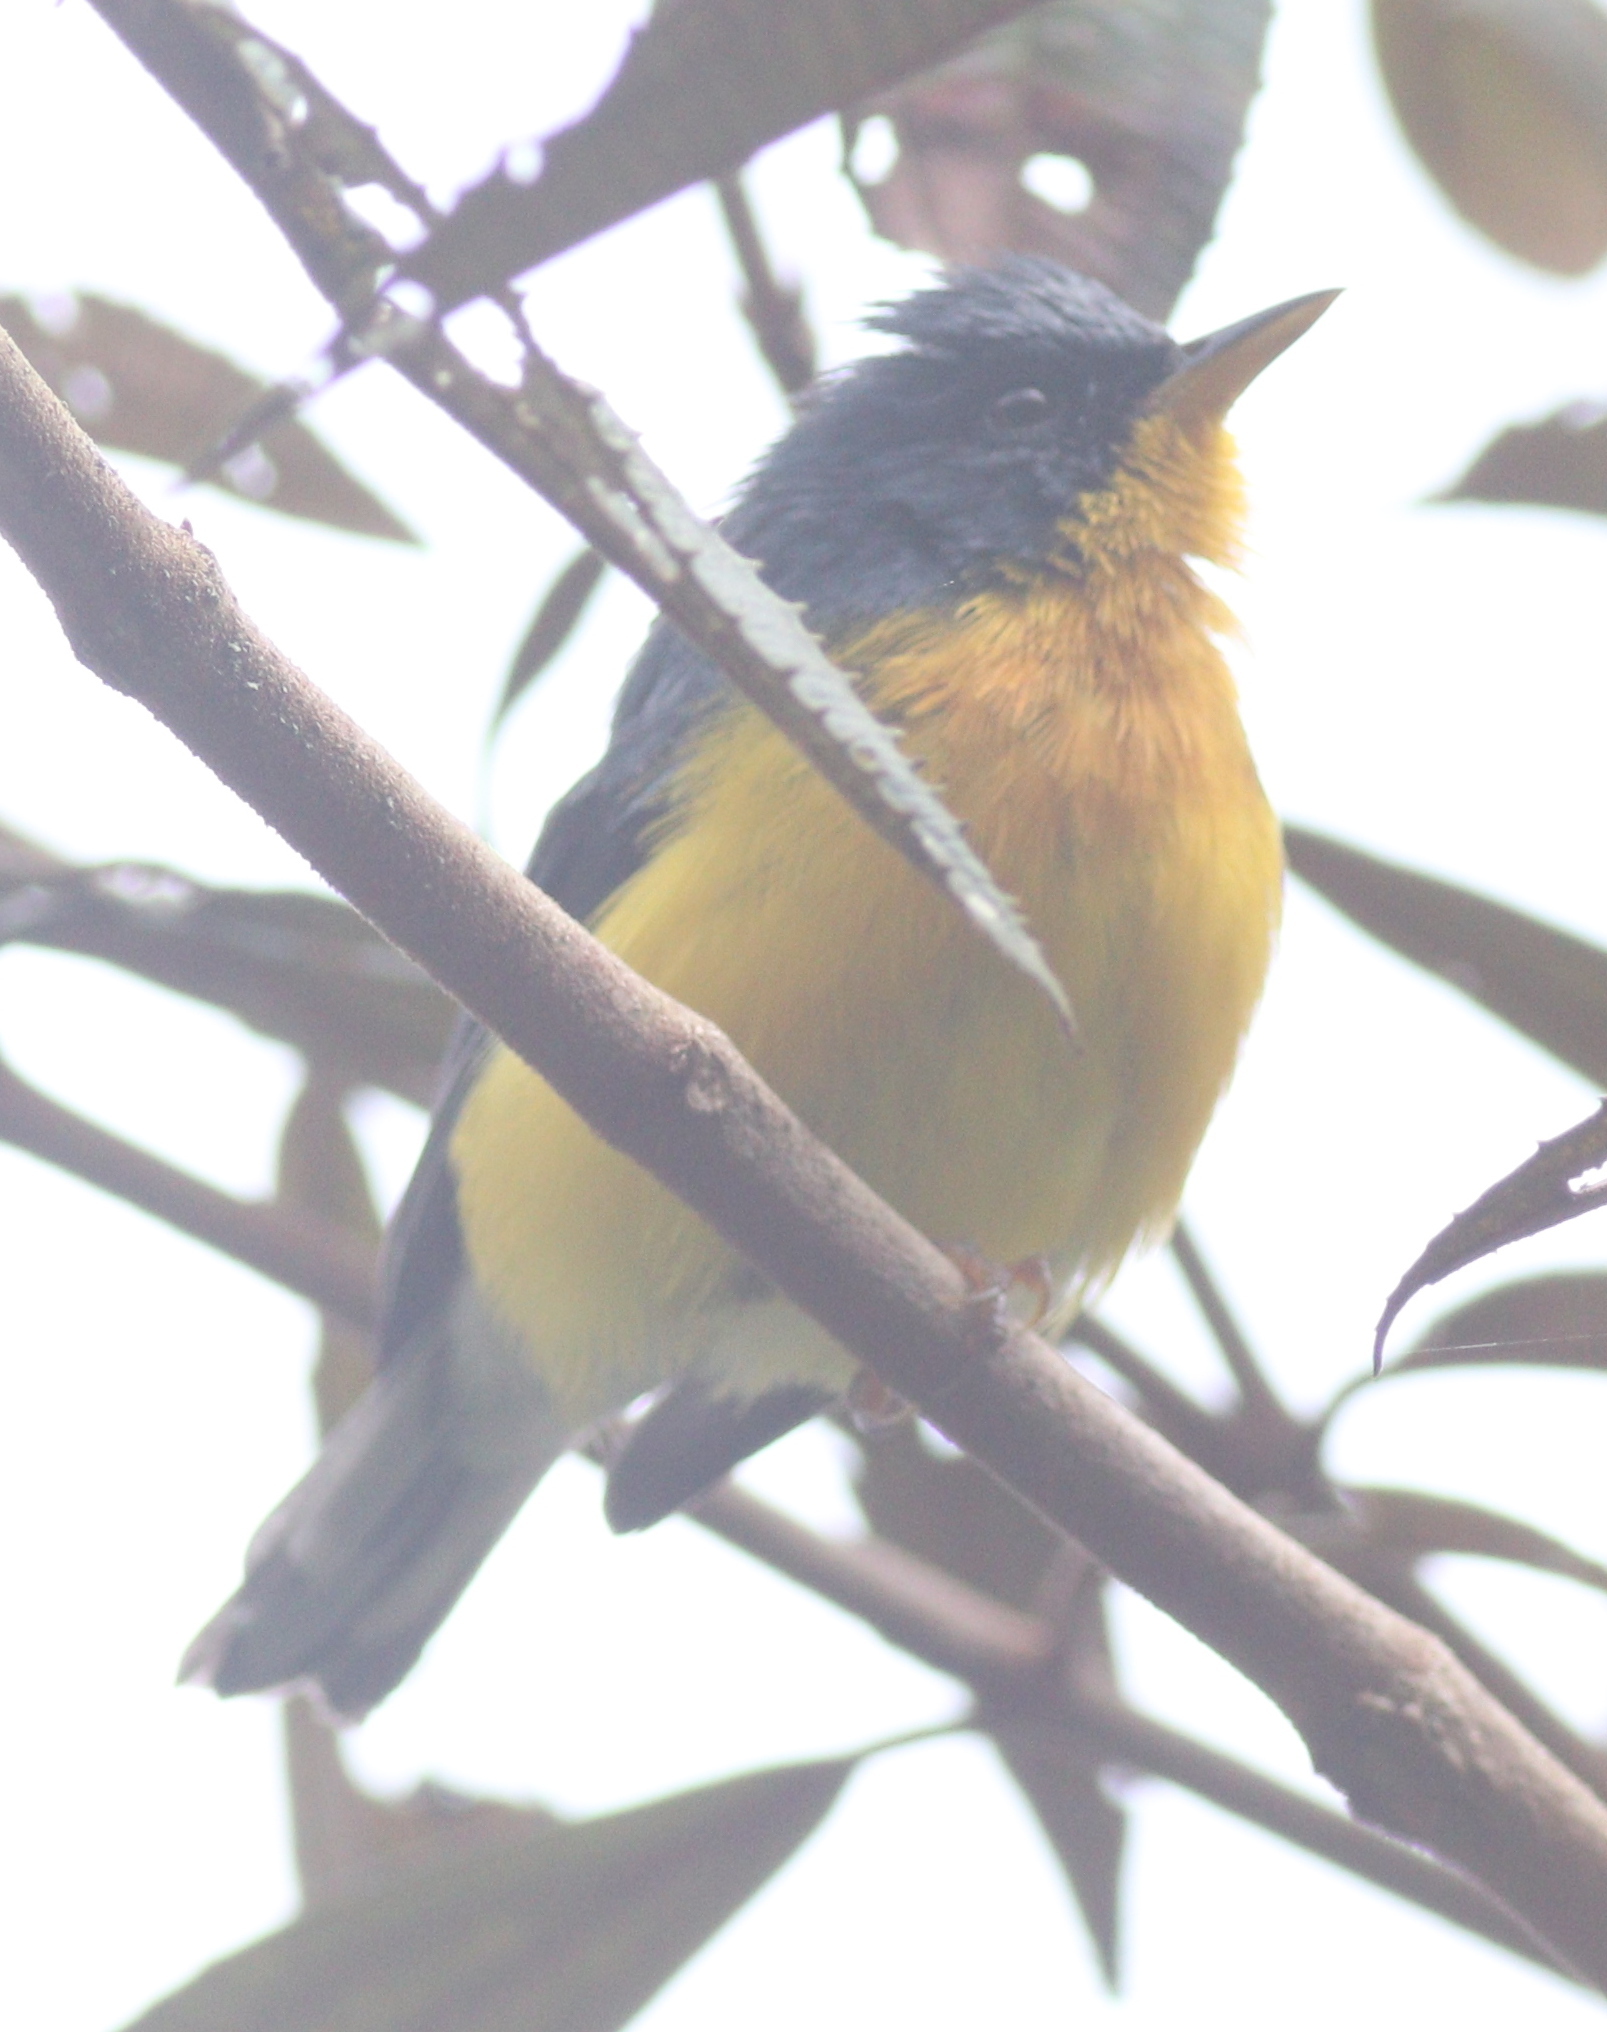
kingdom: Animalia
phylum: Chordata
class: Aves
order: Passeriformes
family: Parulidae
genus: Setophaga
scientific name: Setophaga pitiayumi
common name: Tropical parula
